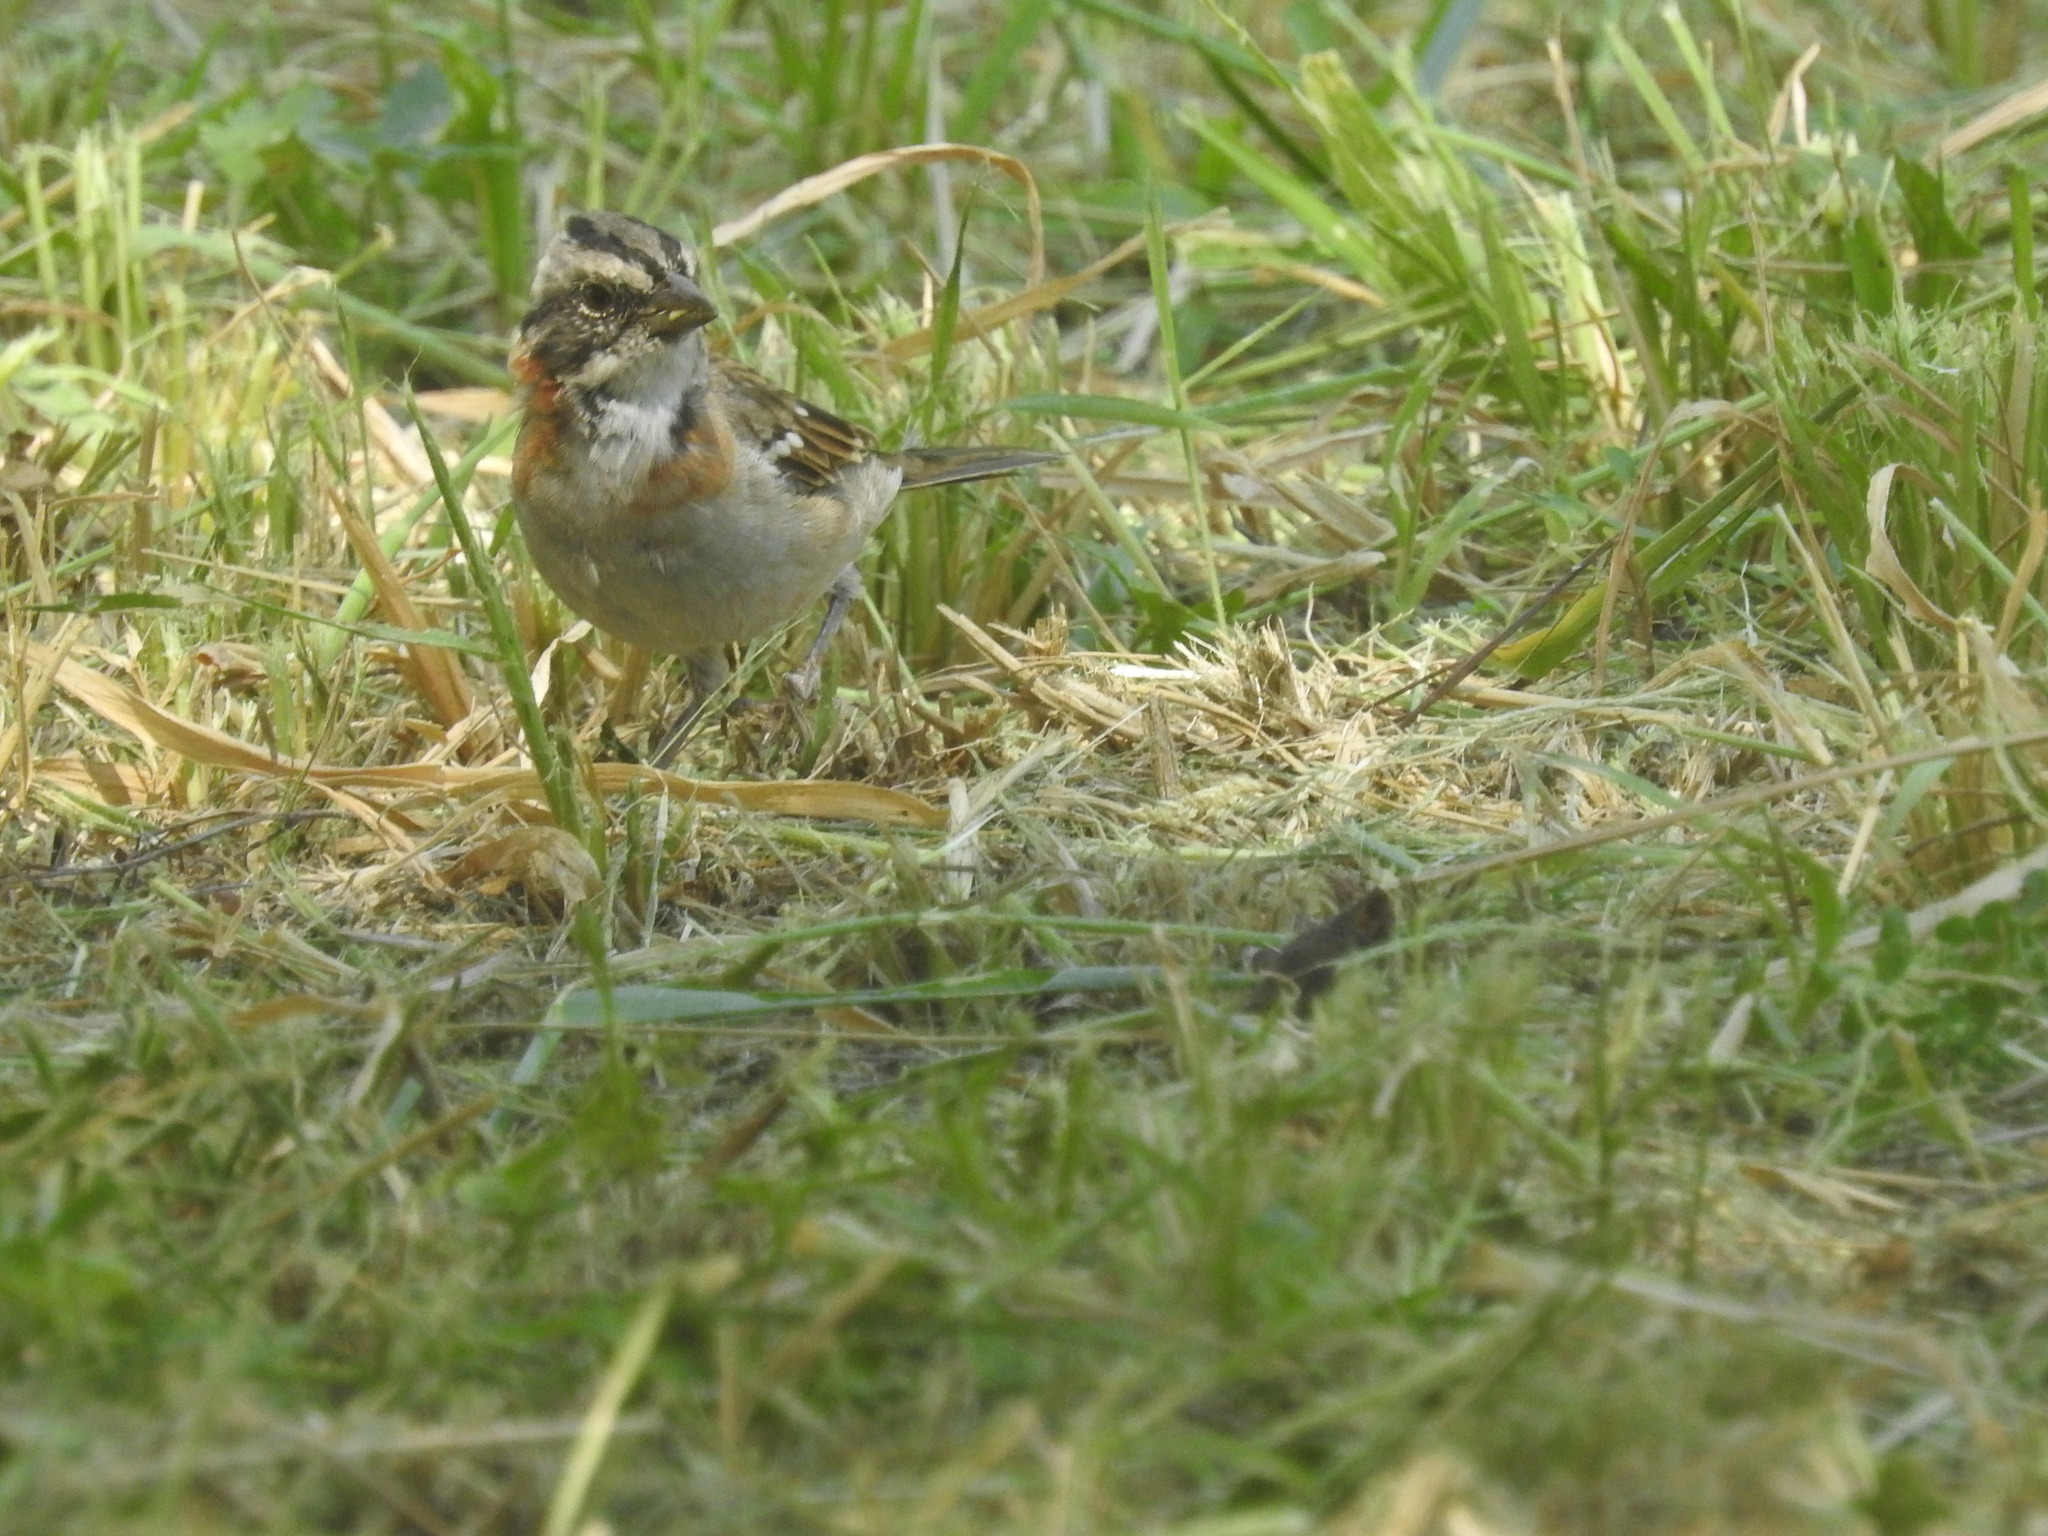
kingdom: Animalia
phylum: Chordata
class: Aves
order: Passeriformes
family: Passerellidae
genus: Zonotrichia
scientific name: Zonotrichia capensis
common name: Rufous-collared sparrow
